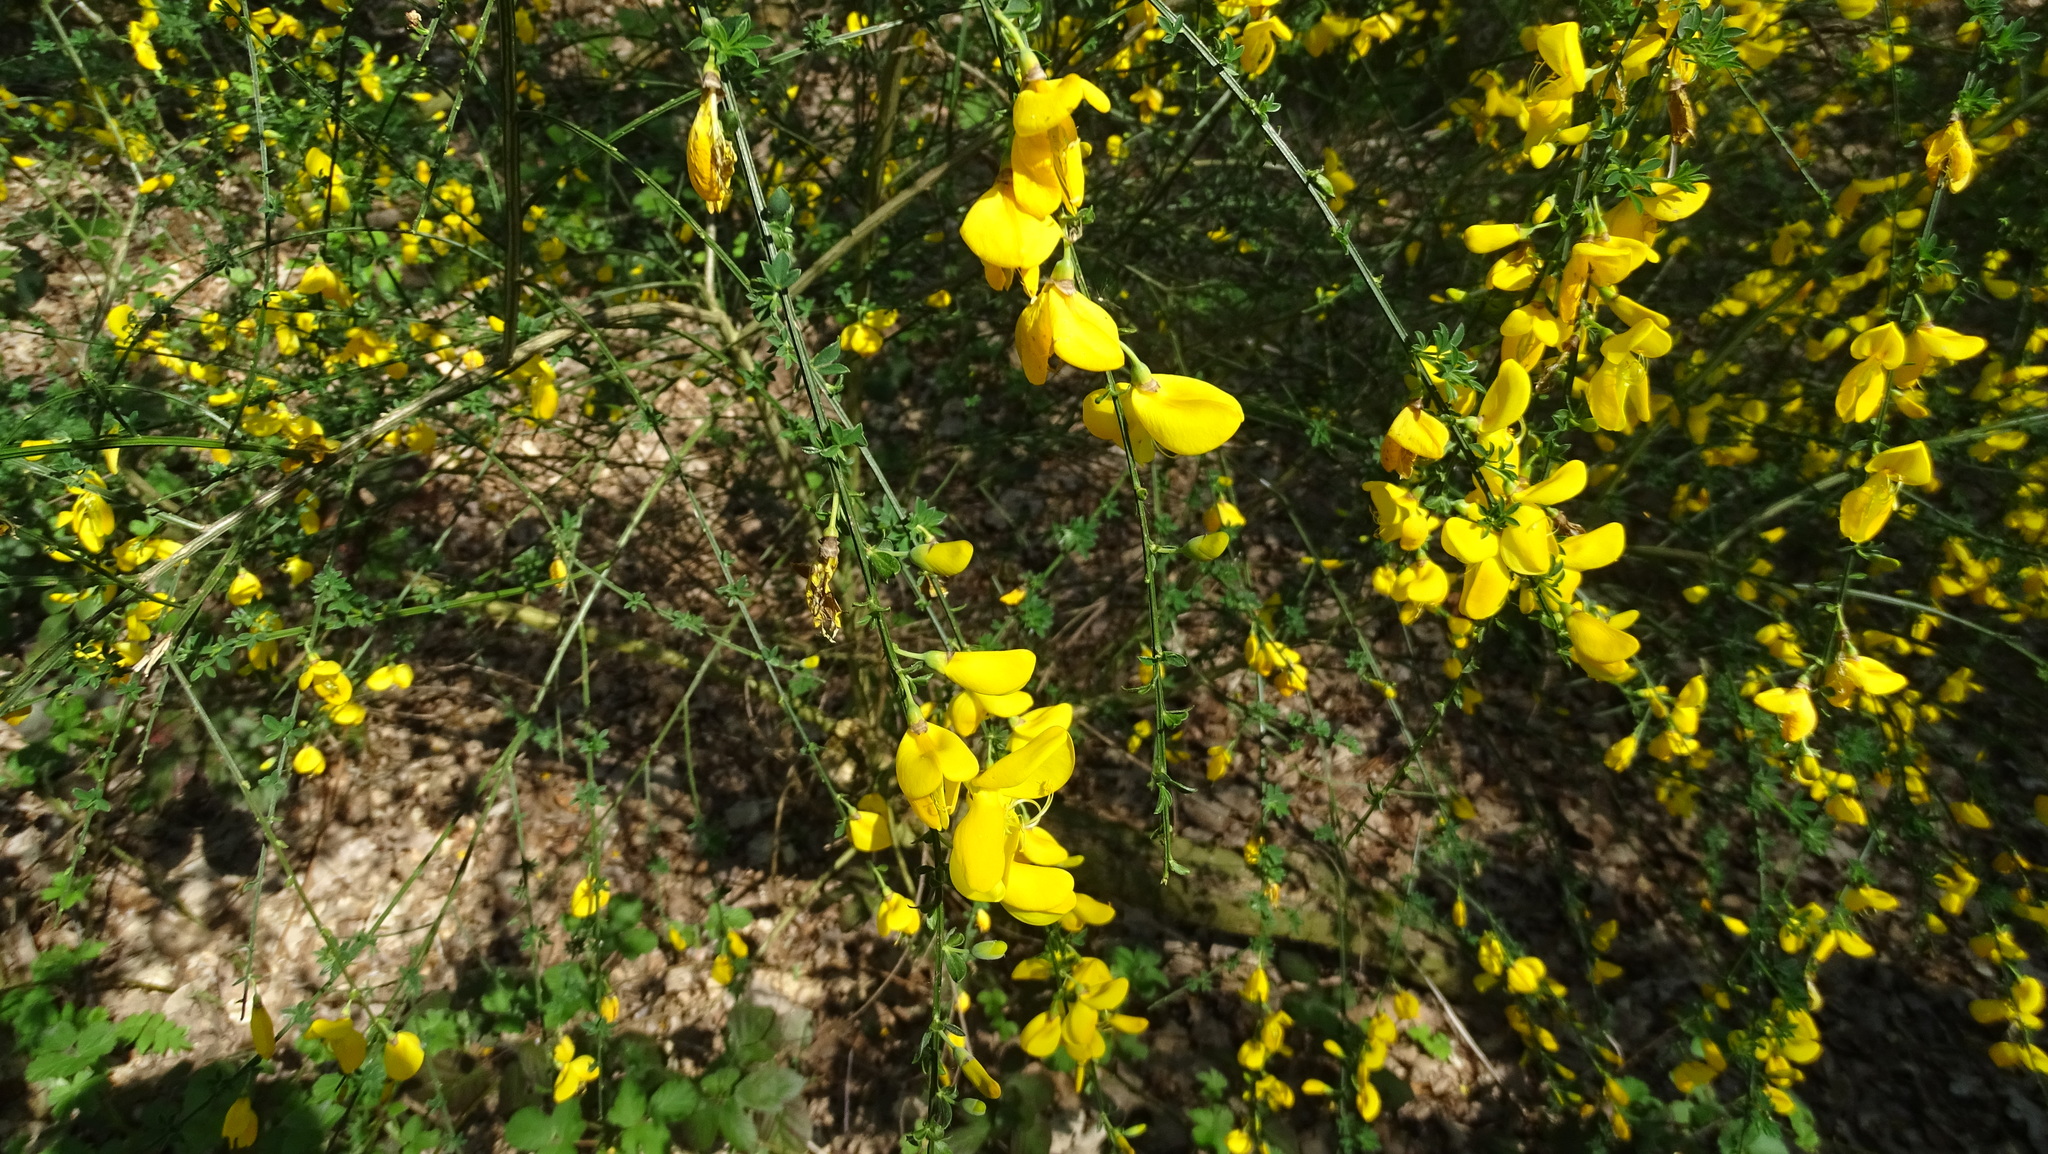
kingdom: Plantae
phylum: Tracheophyta
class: Magnoliopsida
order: Fabales
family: Fabaceae
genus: Cytisus
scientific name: Cytisus scoparius
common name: Scotch broom
